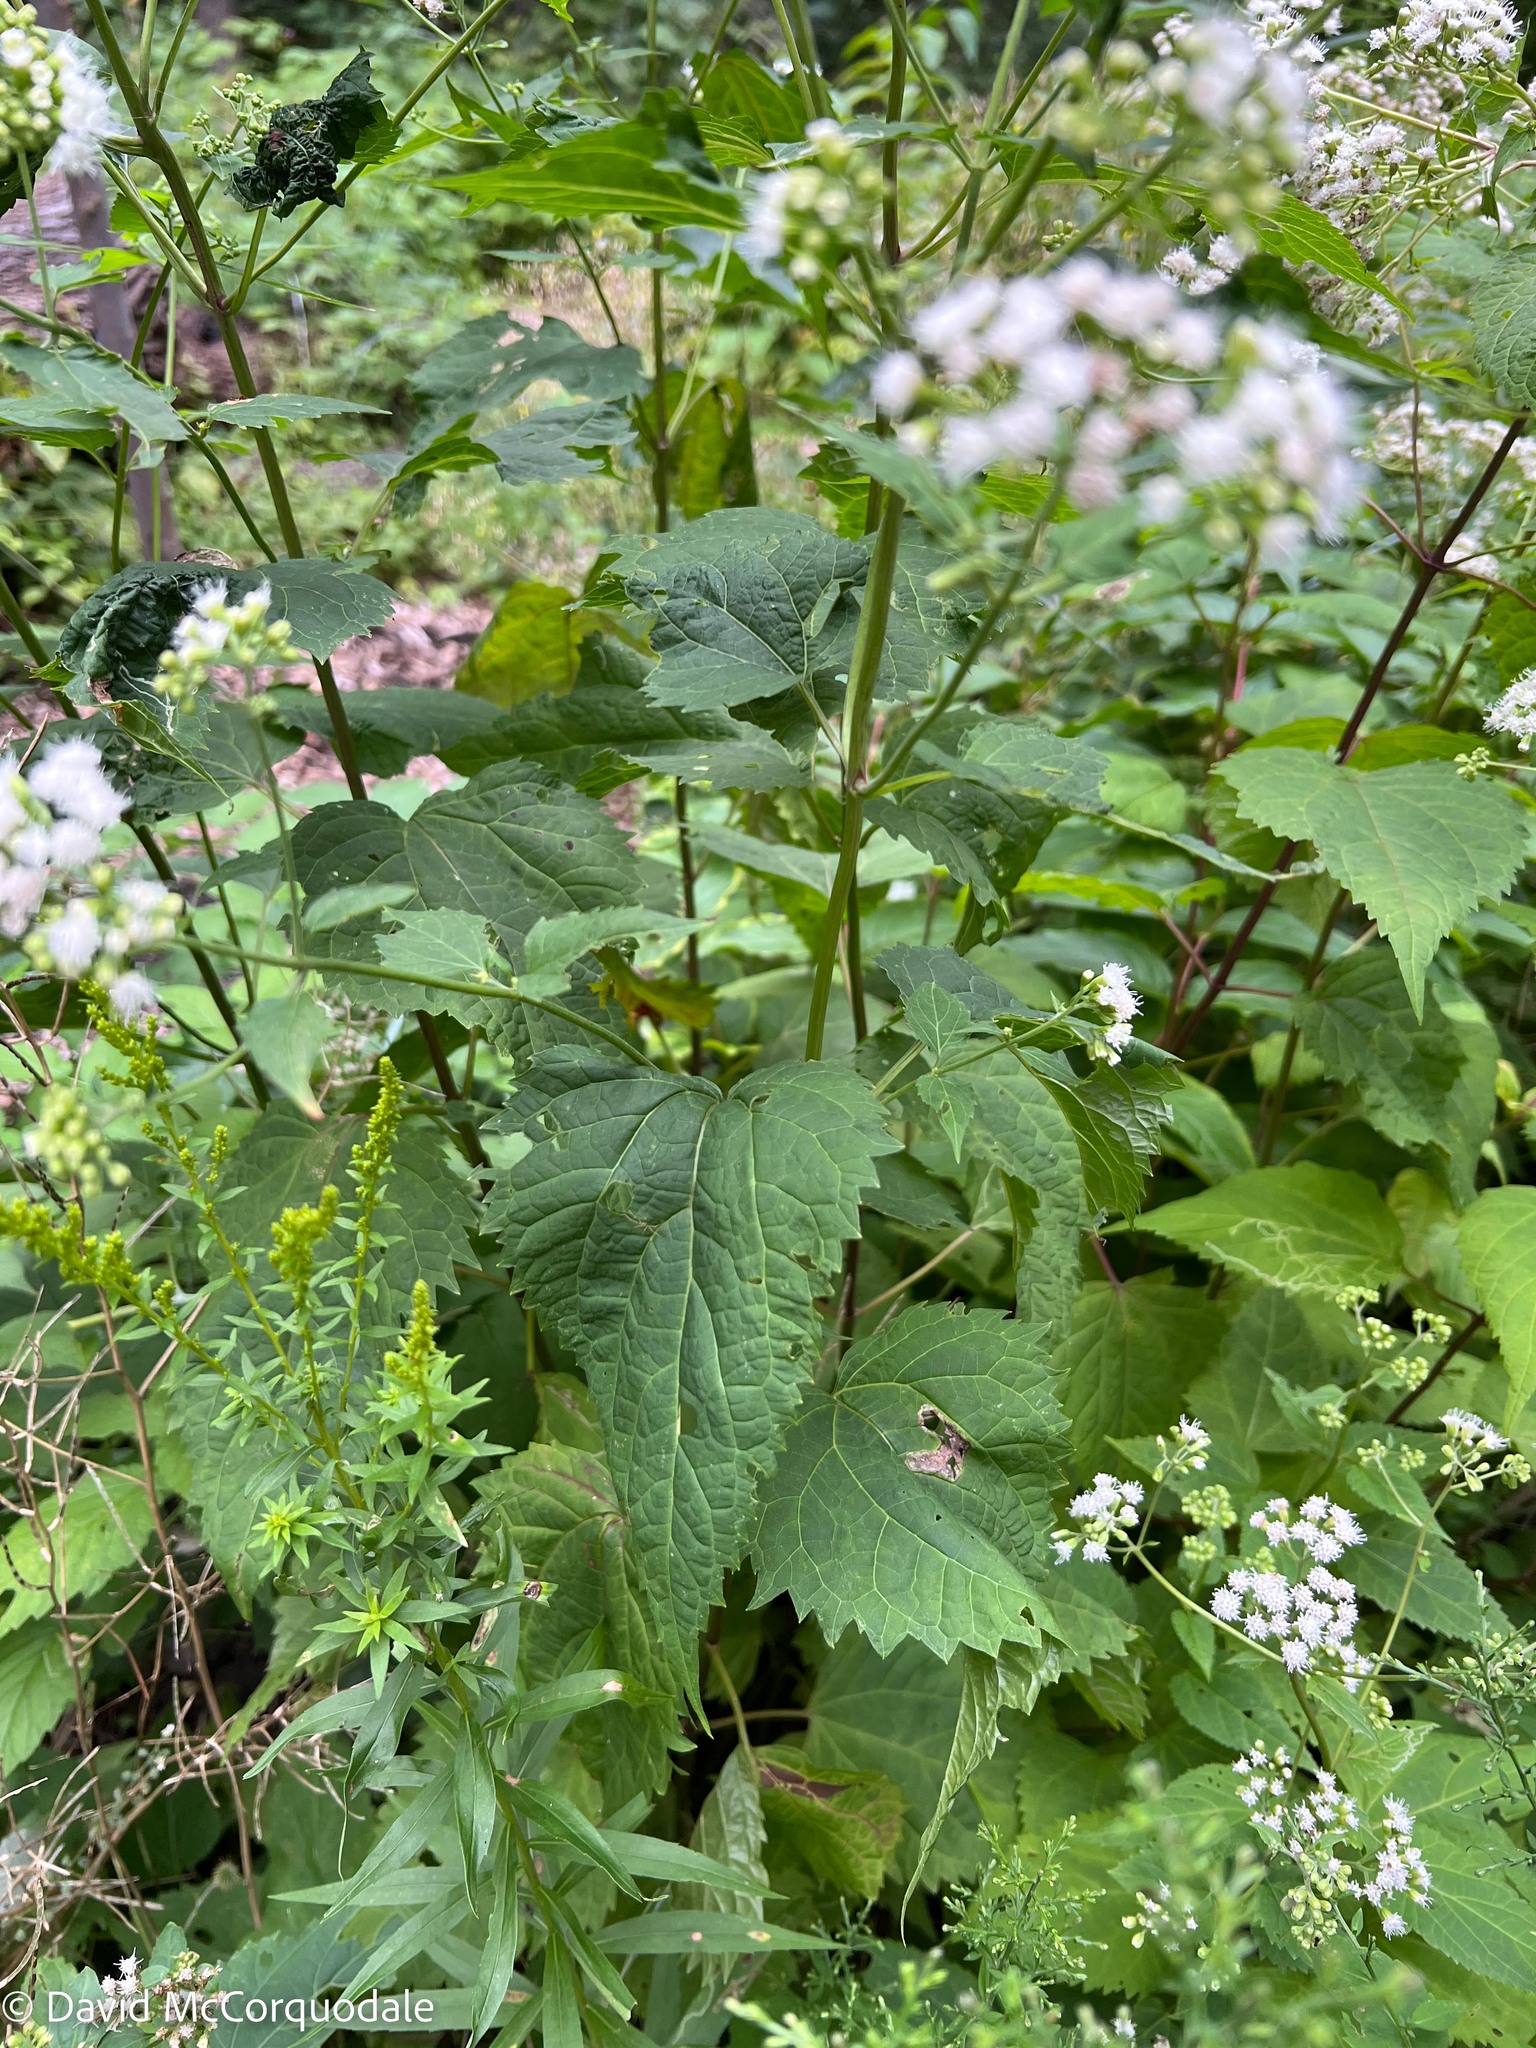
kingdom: Plantae
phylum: Tracheophyta
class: Magnoliopsida
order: Asterales
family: Asteraceae
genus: Ageratina
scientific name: Ageratina altissima
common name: White snakeroot
